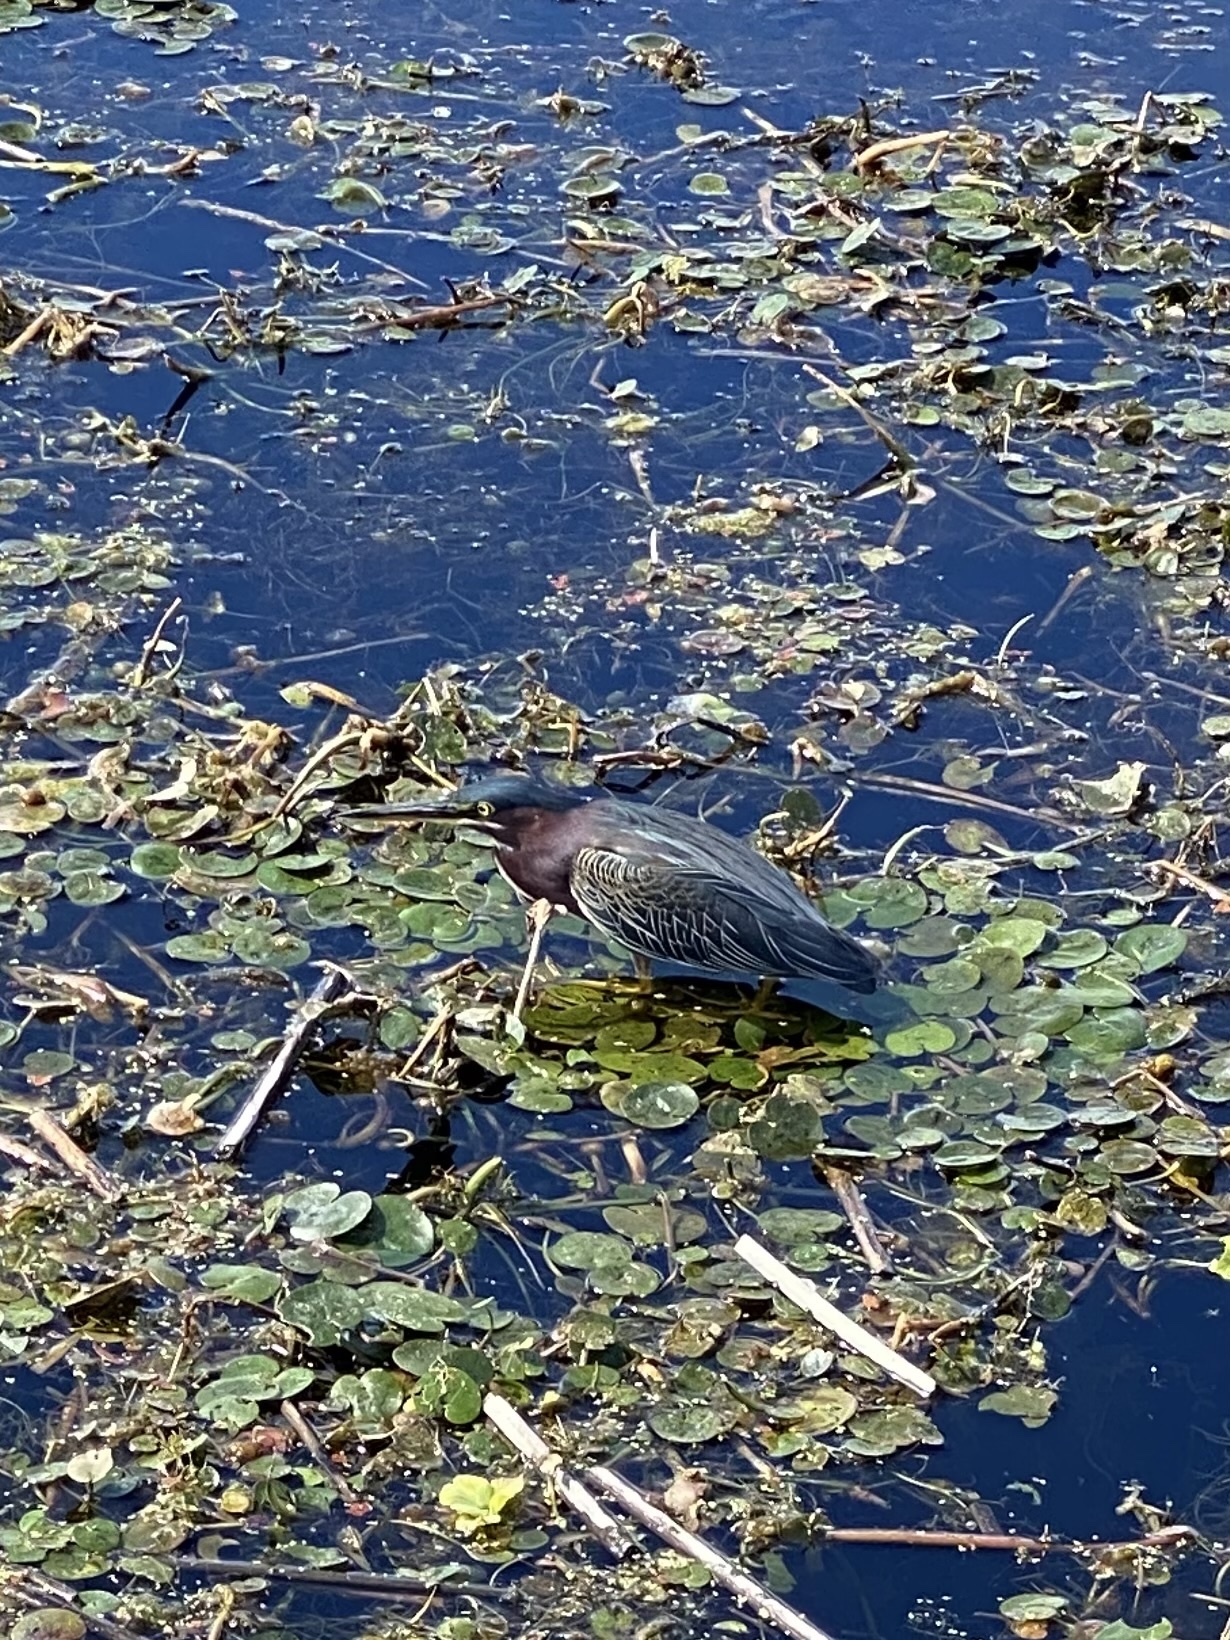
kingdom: Animalia
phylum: Chordata
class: Aves
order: Pelecaniformes
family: Ardeidae
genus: Butorides
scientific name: Butorides virescens
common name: Green heron
